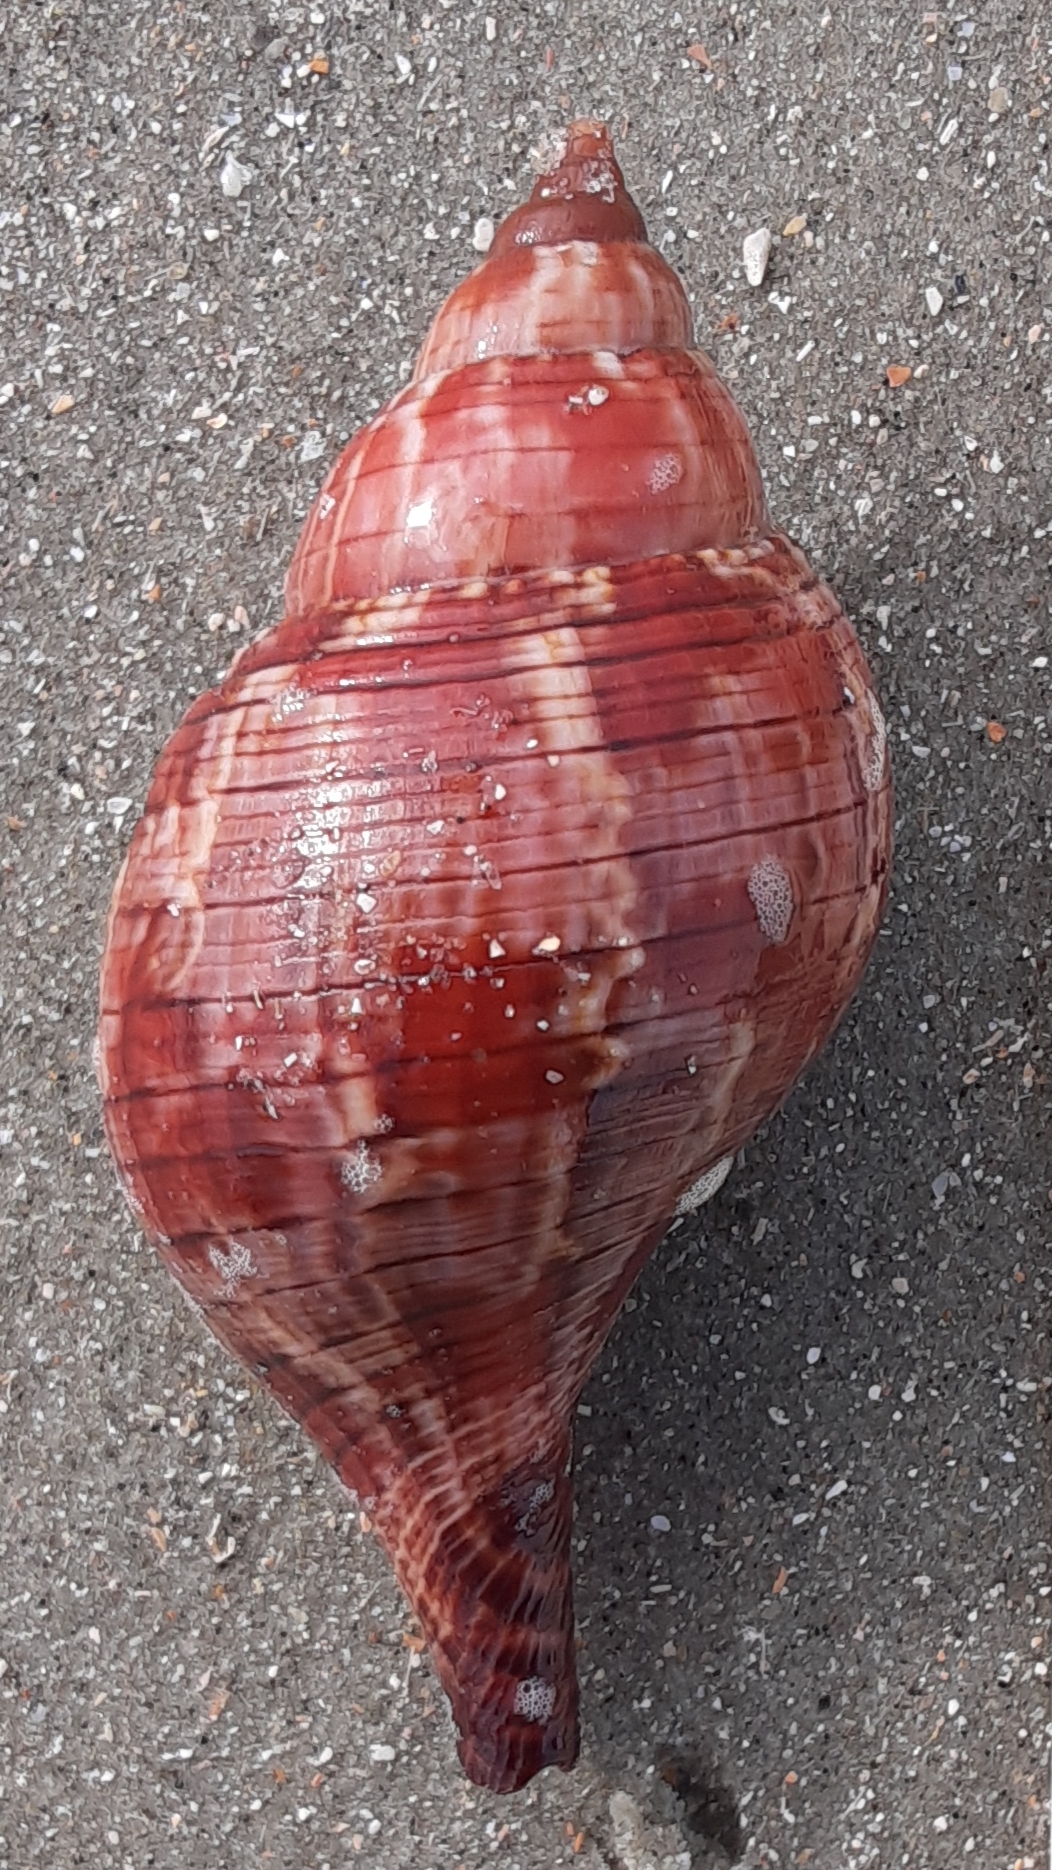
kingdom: Animalia
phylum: Mollusca
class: Gastropoda
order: Neogastropoda
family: Fasciolariidae
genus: Fasciolaria
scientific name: Fasciolaria tulipa
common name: True tulip
